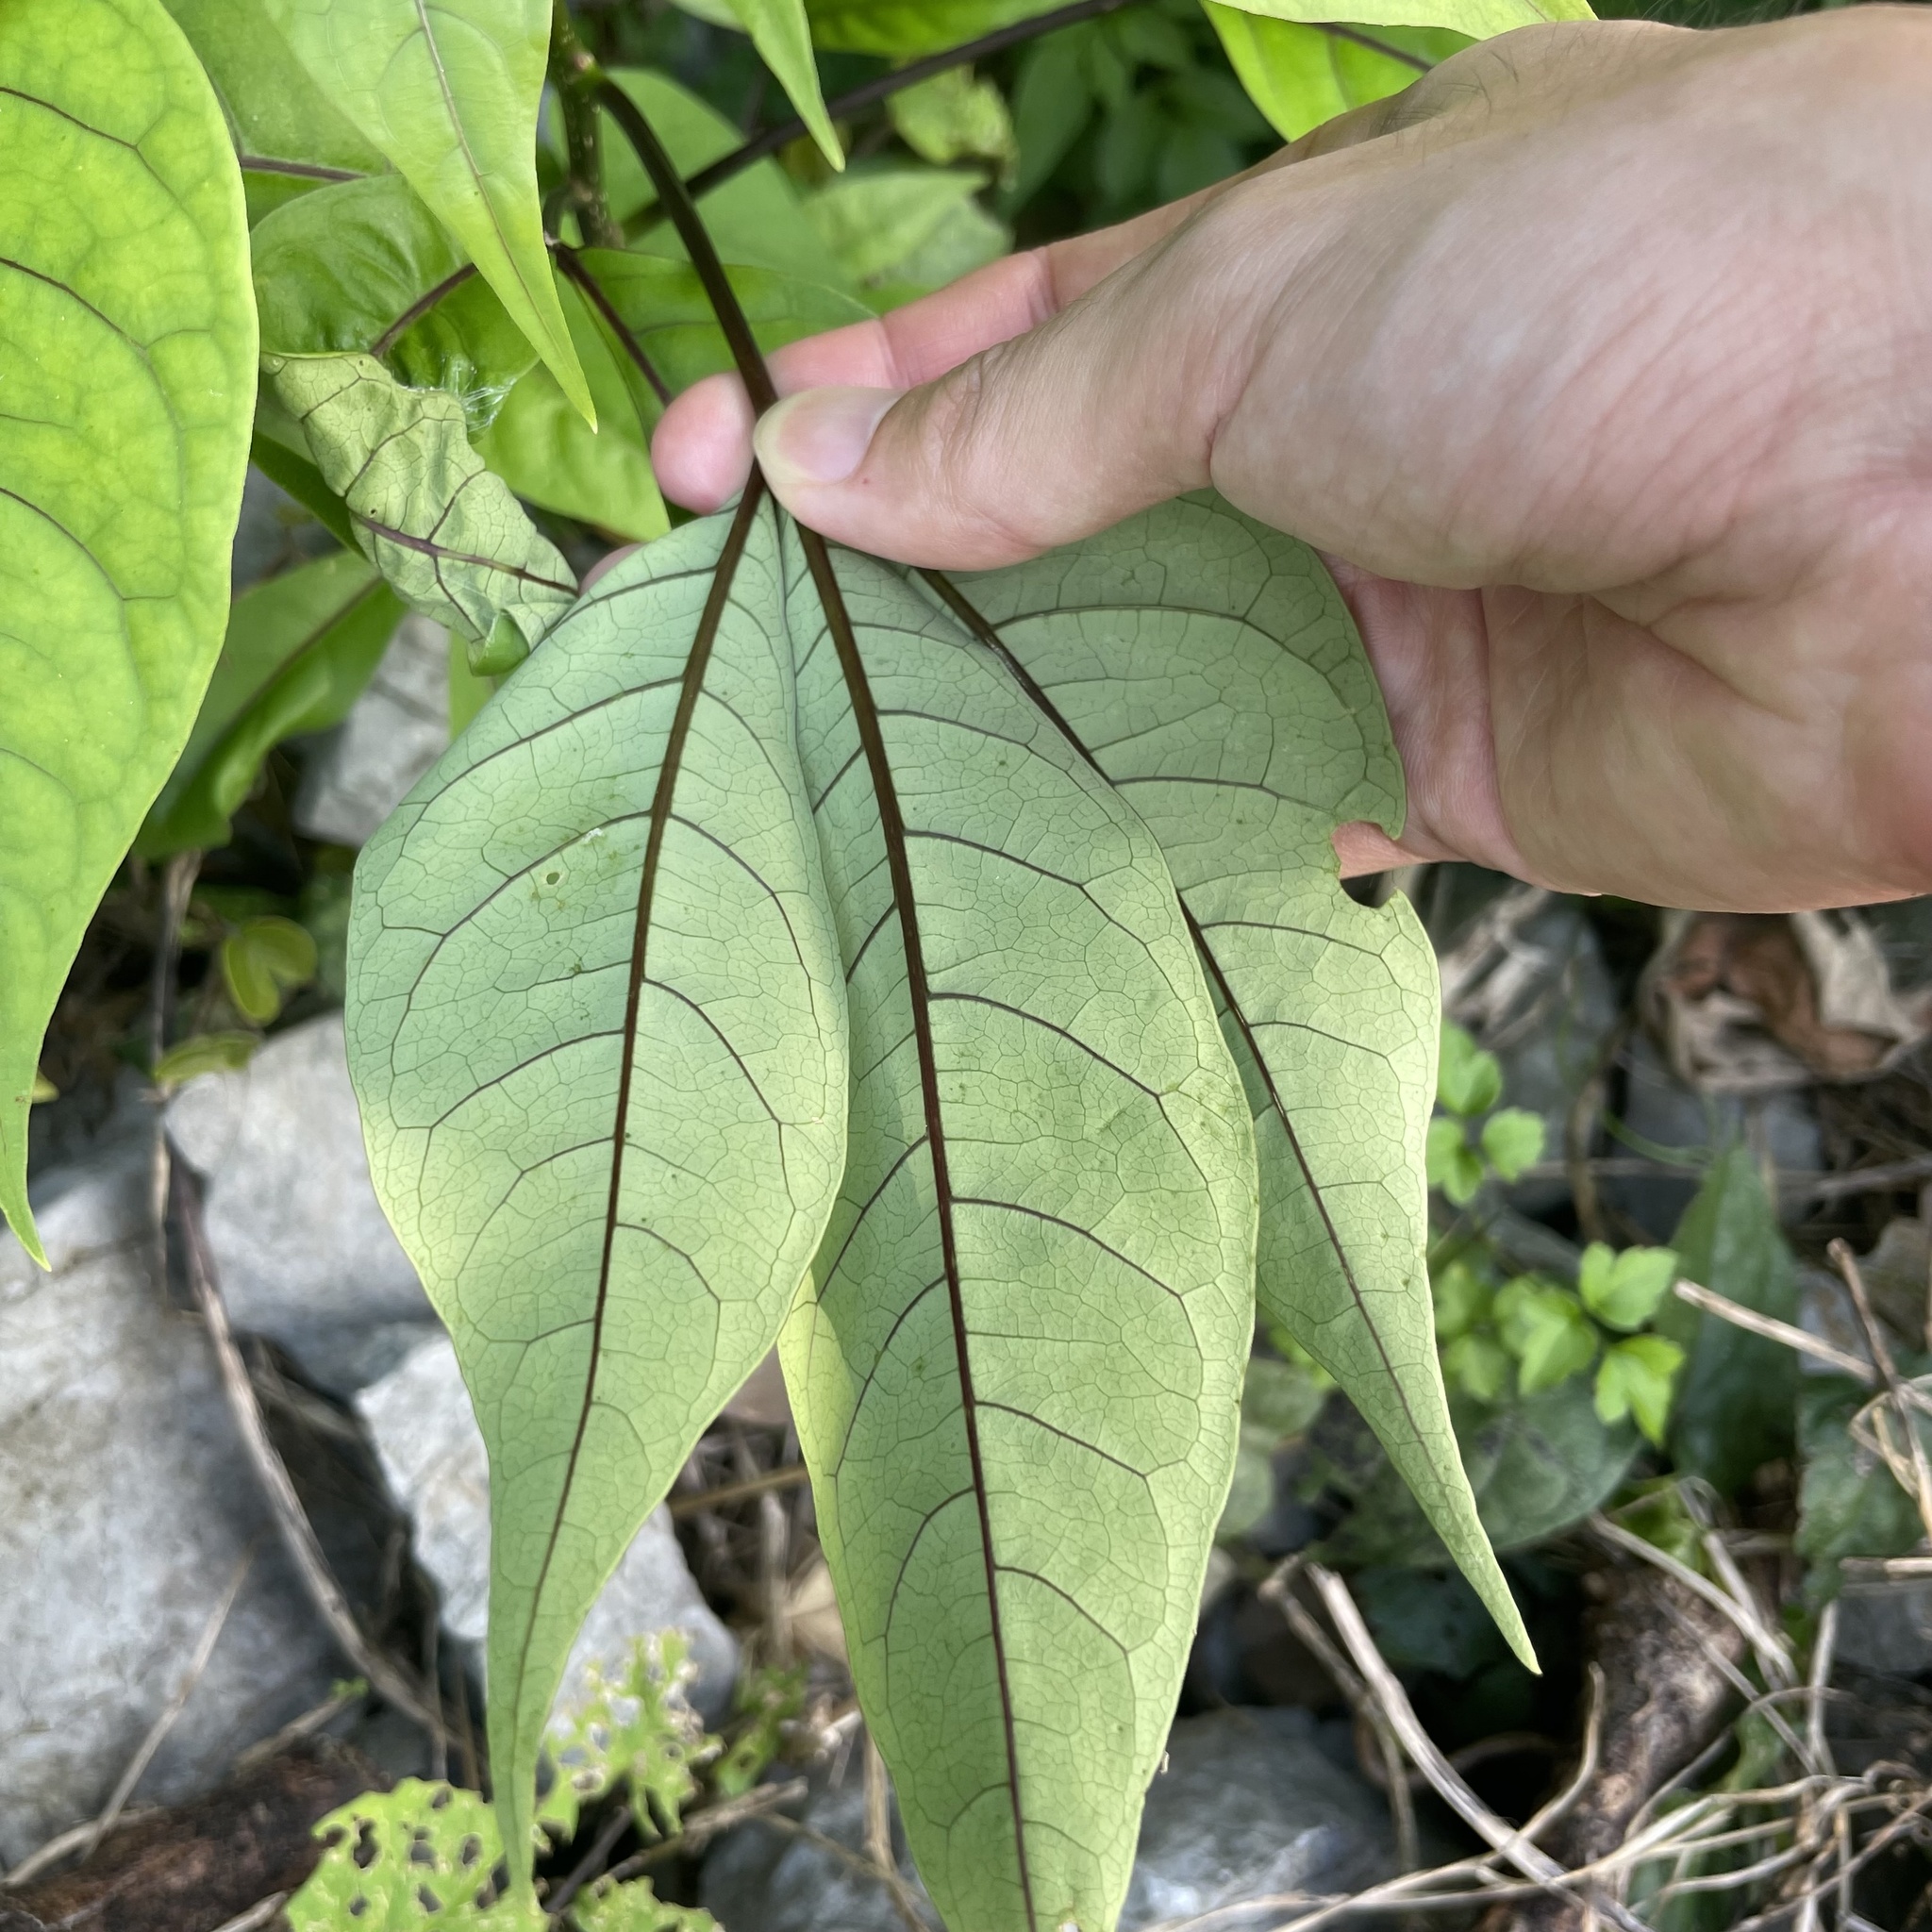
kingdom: Plantae
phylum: Tracheophyta
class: Magnoliopsida
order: Brassicales
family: Capparaceae
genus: Crateva
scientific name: Crateva religiosa
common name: March dalur
